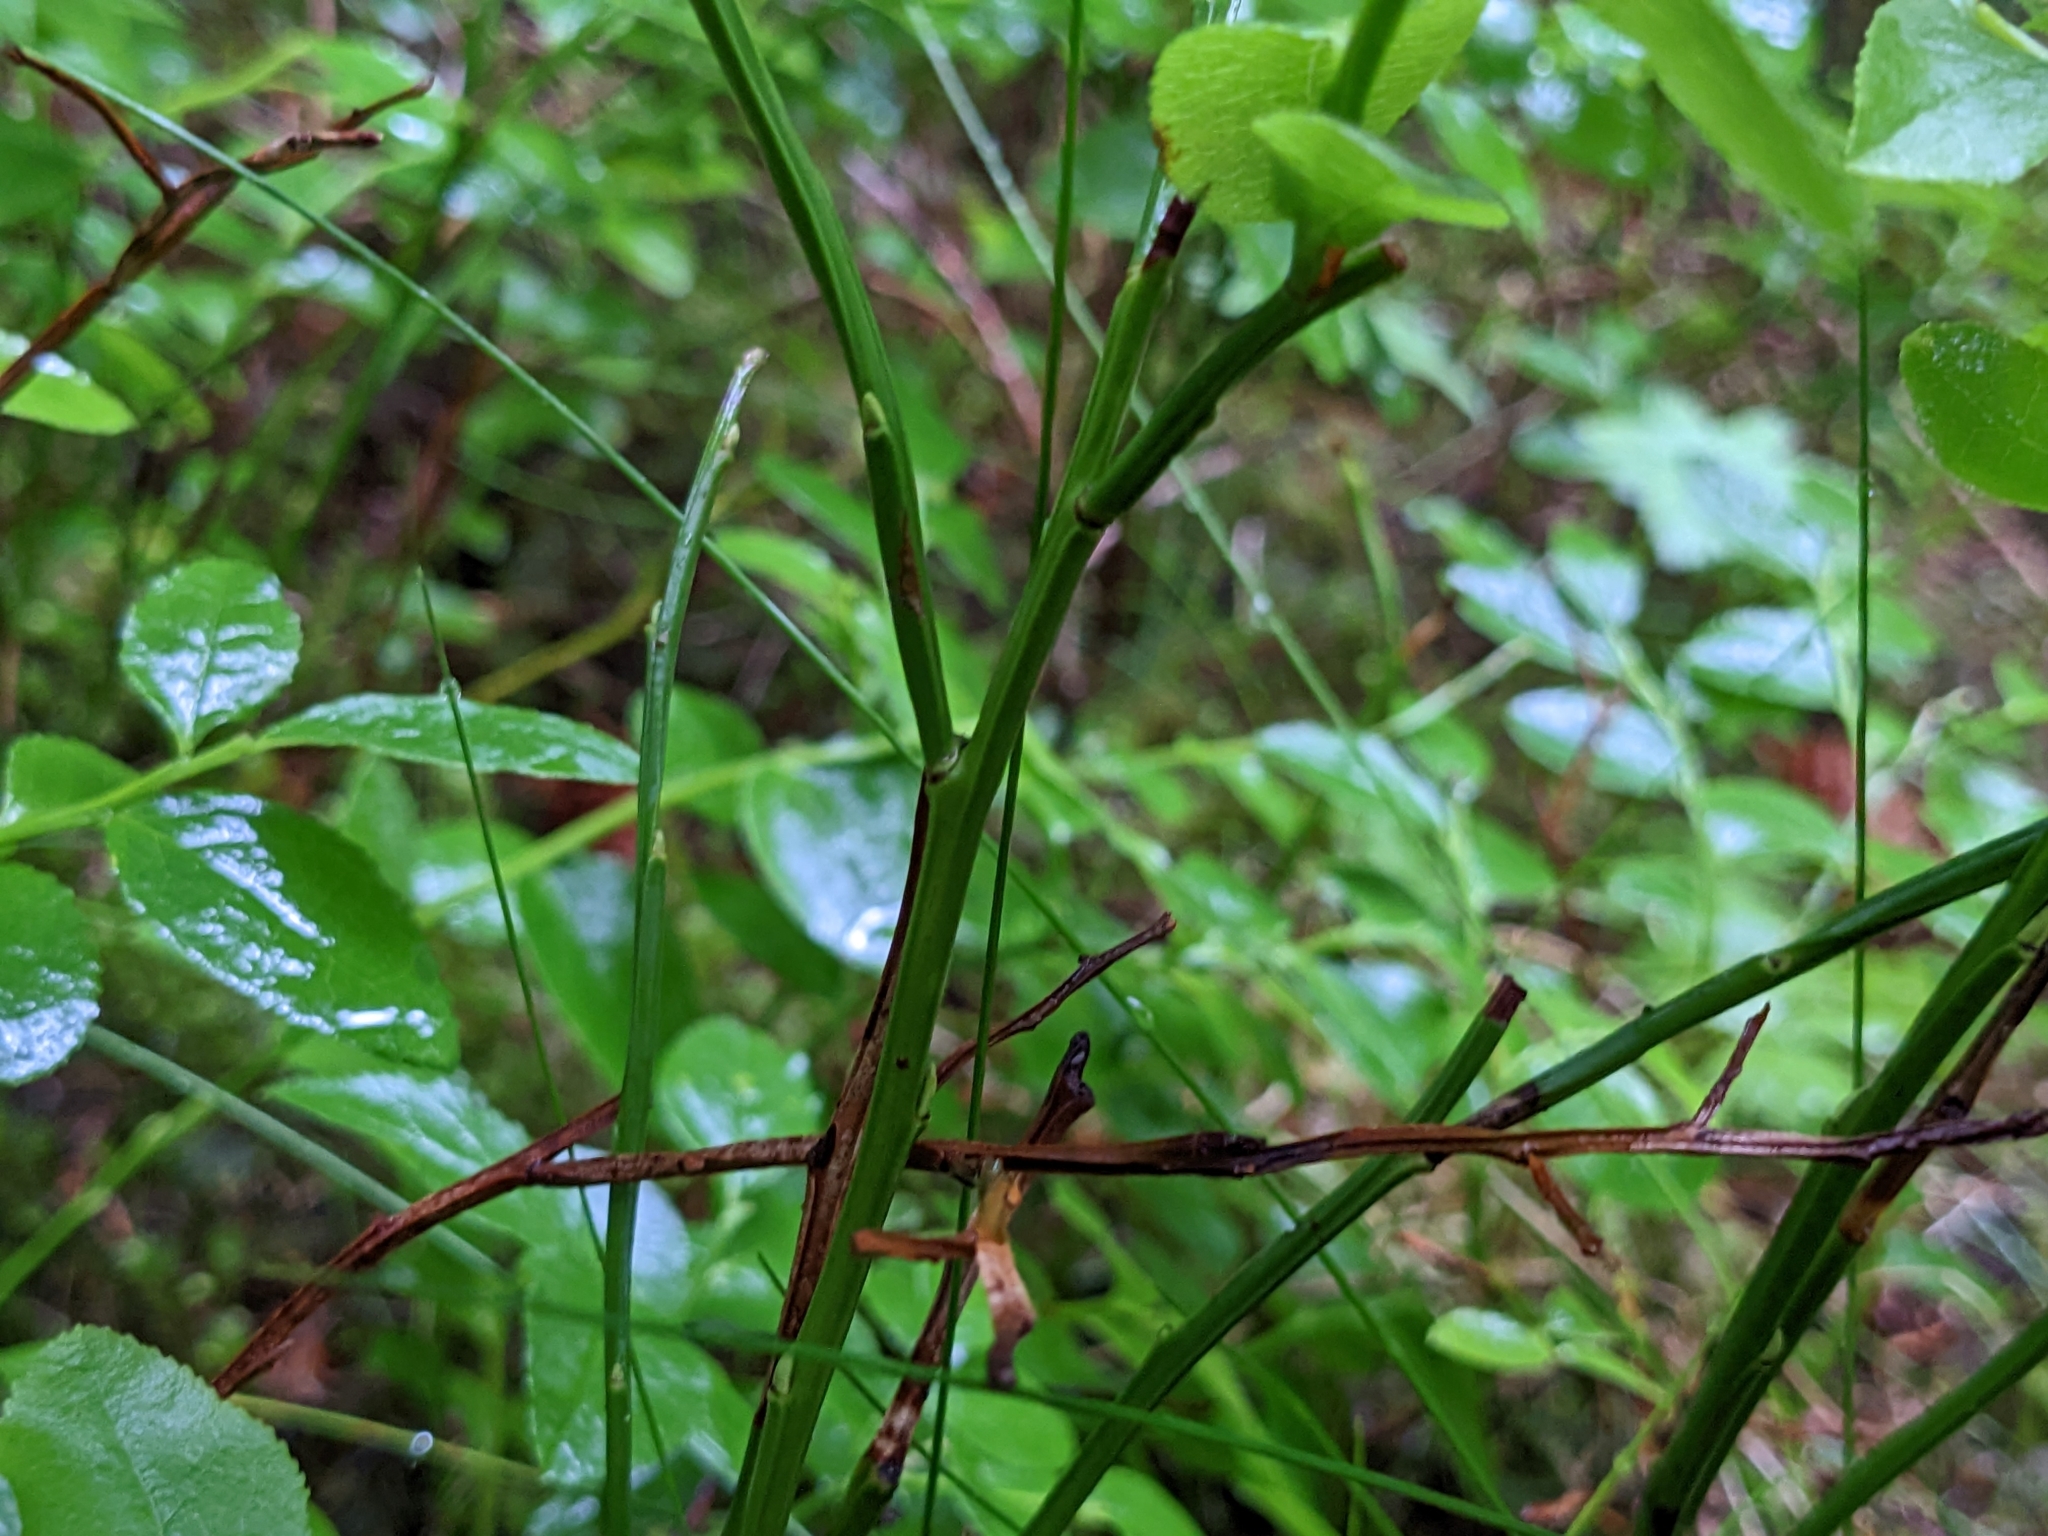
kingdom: Plantae
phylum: Tracheophyta
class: Magnoliopsida
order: Ericales
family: Ericaceae
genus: Vaccinium
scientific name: Vaccinium myrtillus
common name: Bilberry
